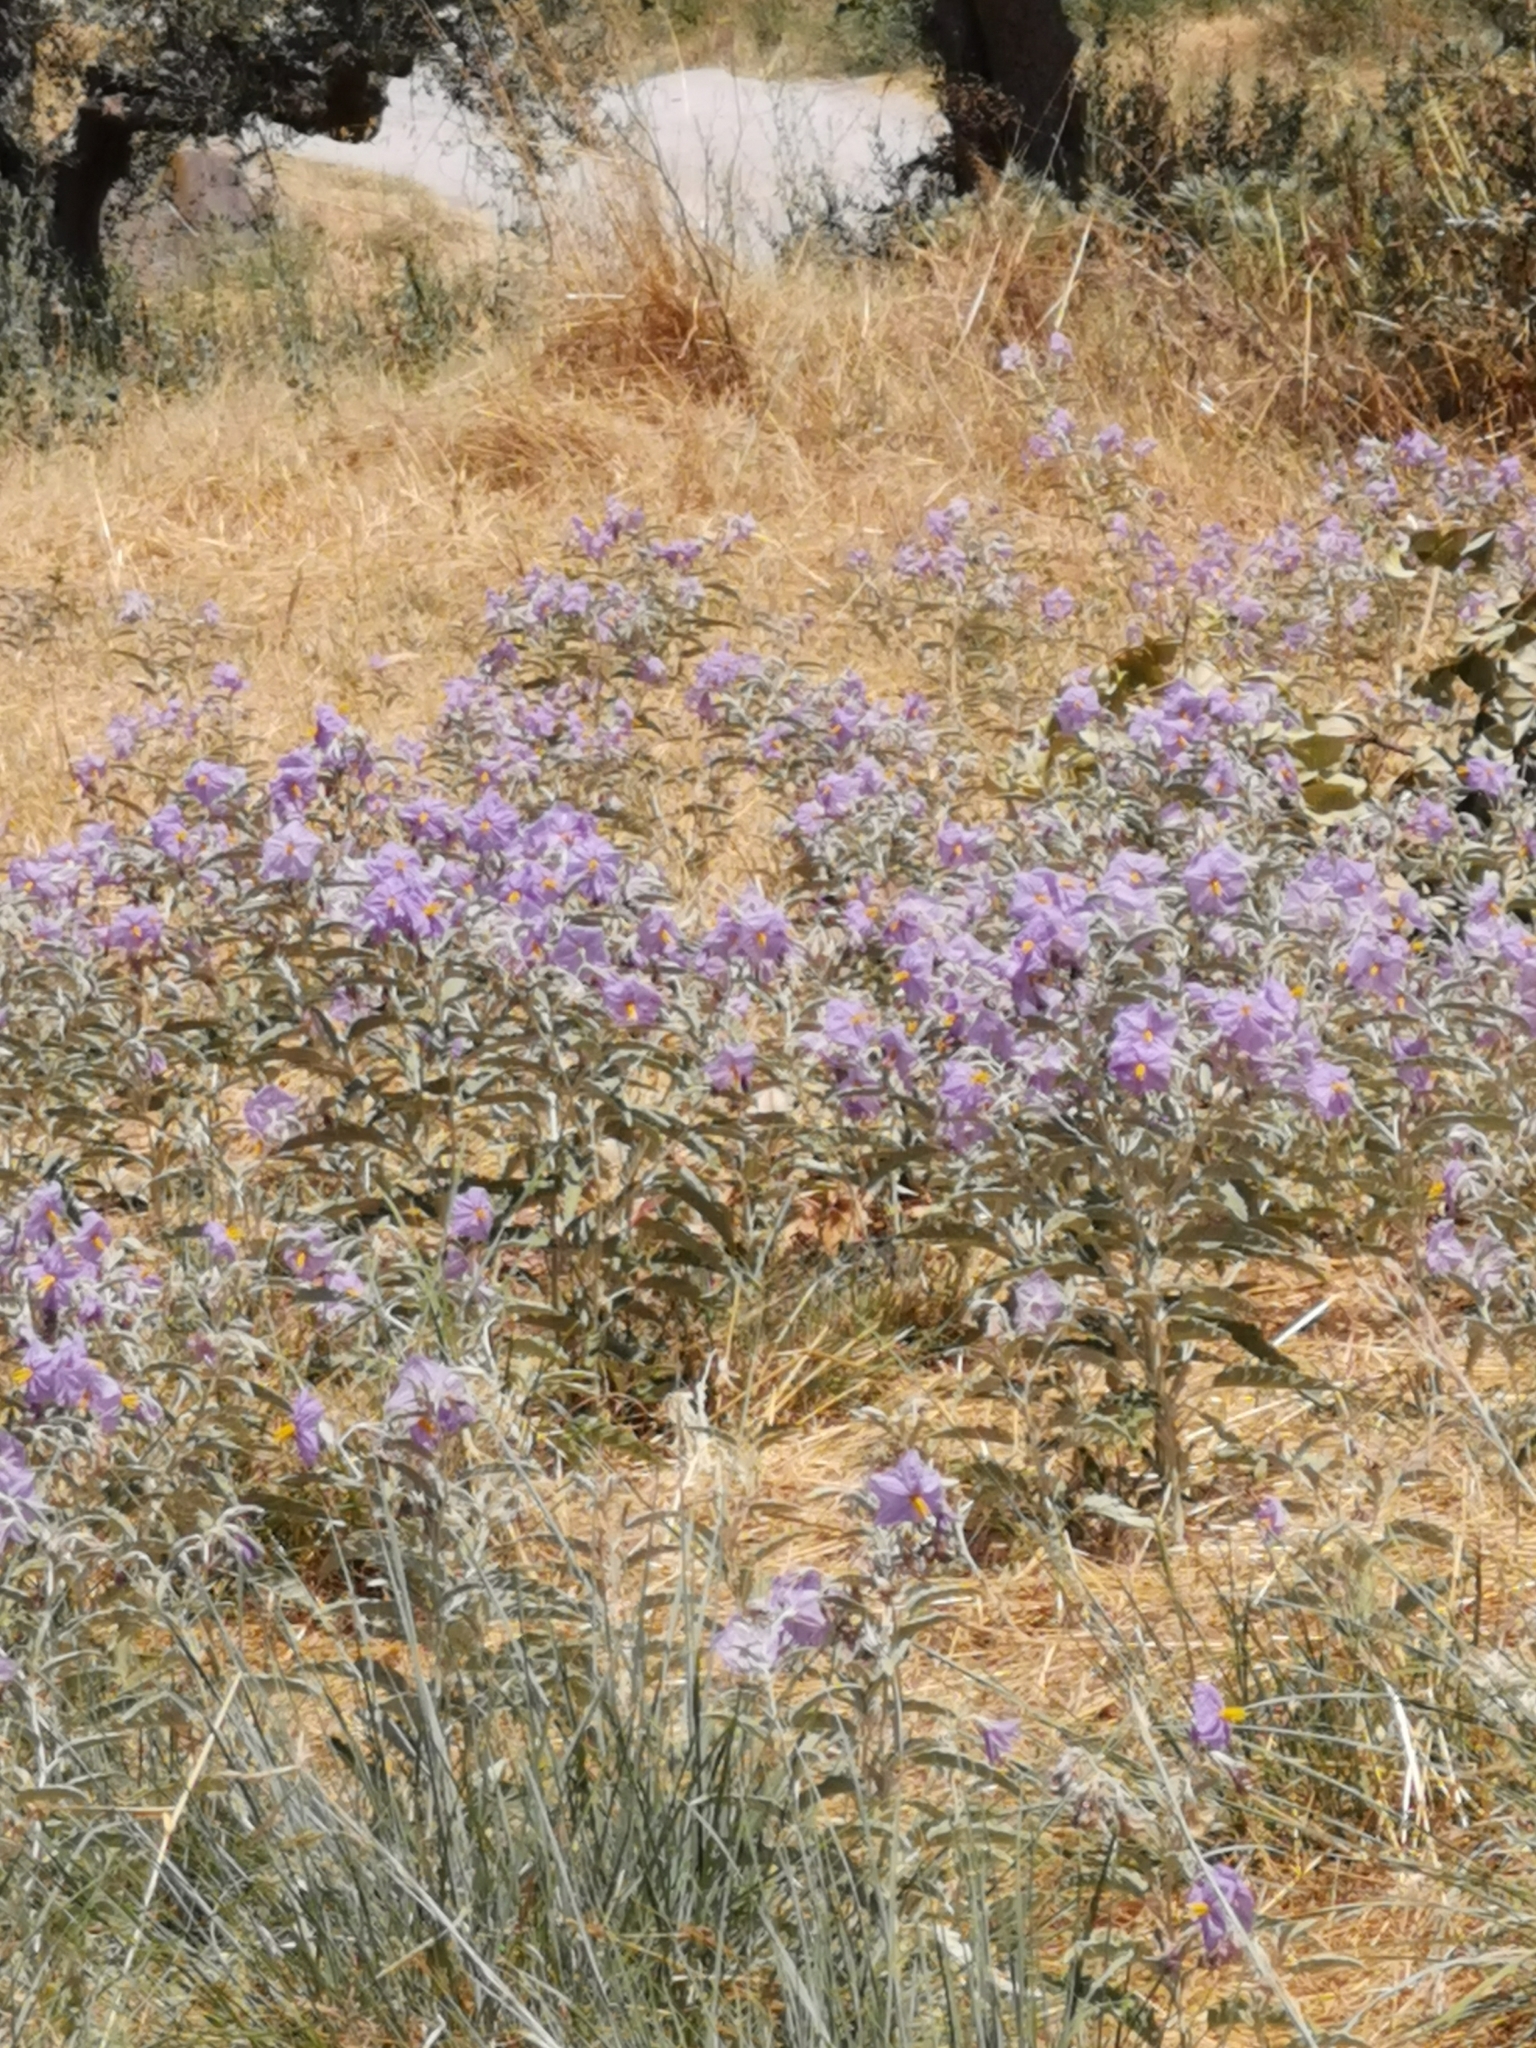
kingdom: Plantae
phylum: Tracheophyta
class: Magnoliopsida
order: Solanales
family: Solanaceae
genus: Solanum
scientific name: Solanum elaeagnifolium
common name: Silverleaf nightshade
